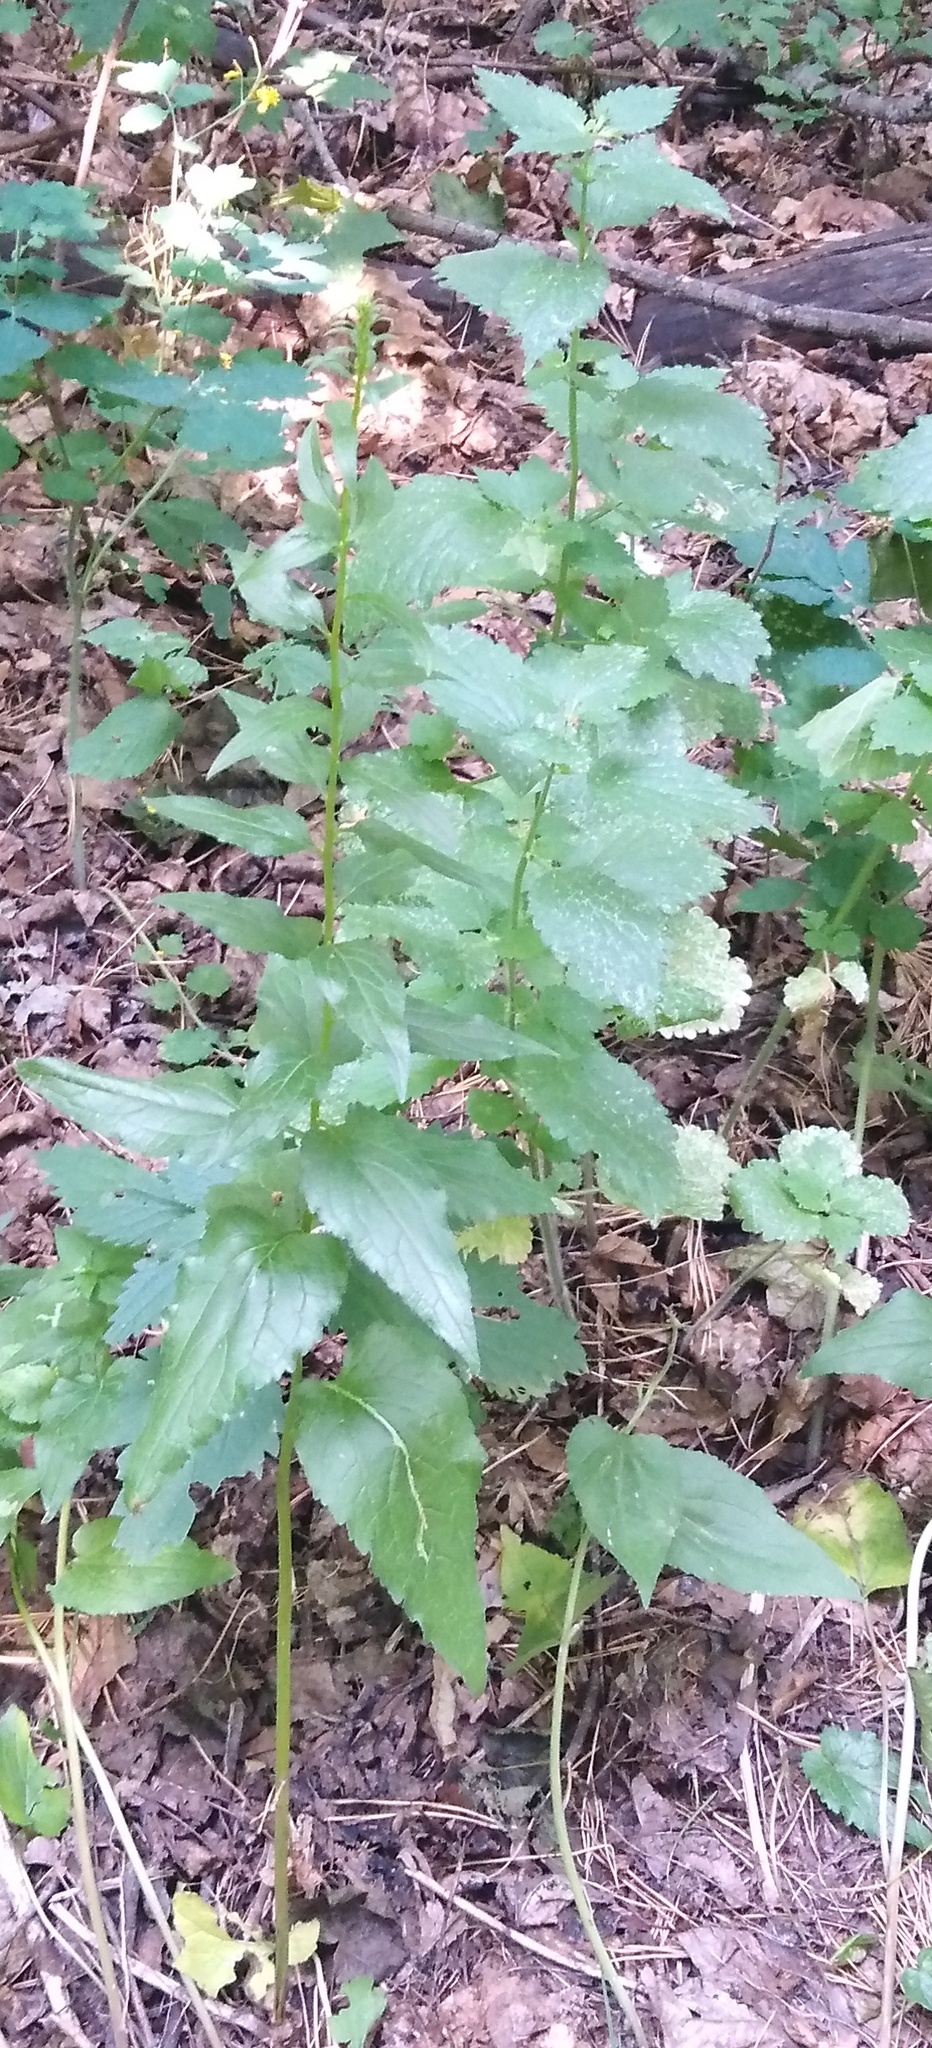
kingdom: Plantae
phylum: Tracheophyta
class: Magnoliopsida
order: Asterales
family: Campanulaceae
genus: Campanula
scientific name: Campanula trachelium
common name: Nettle-leaved bellflower
